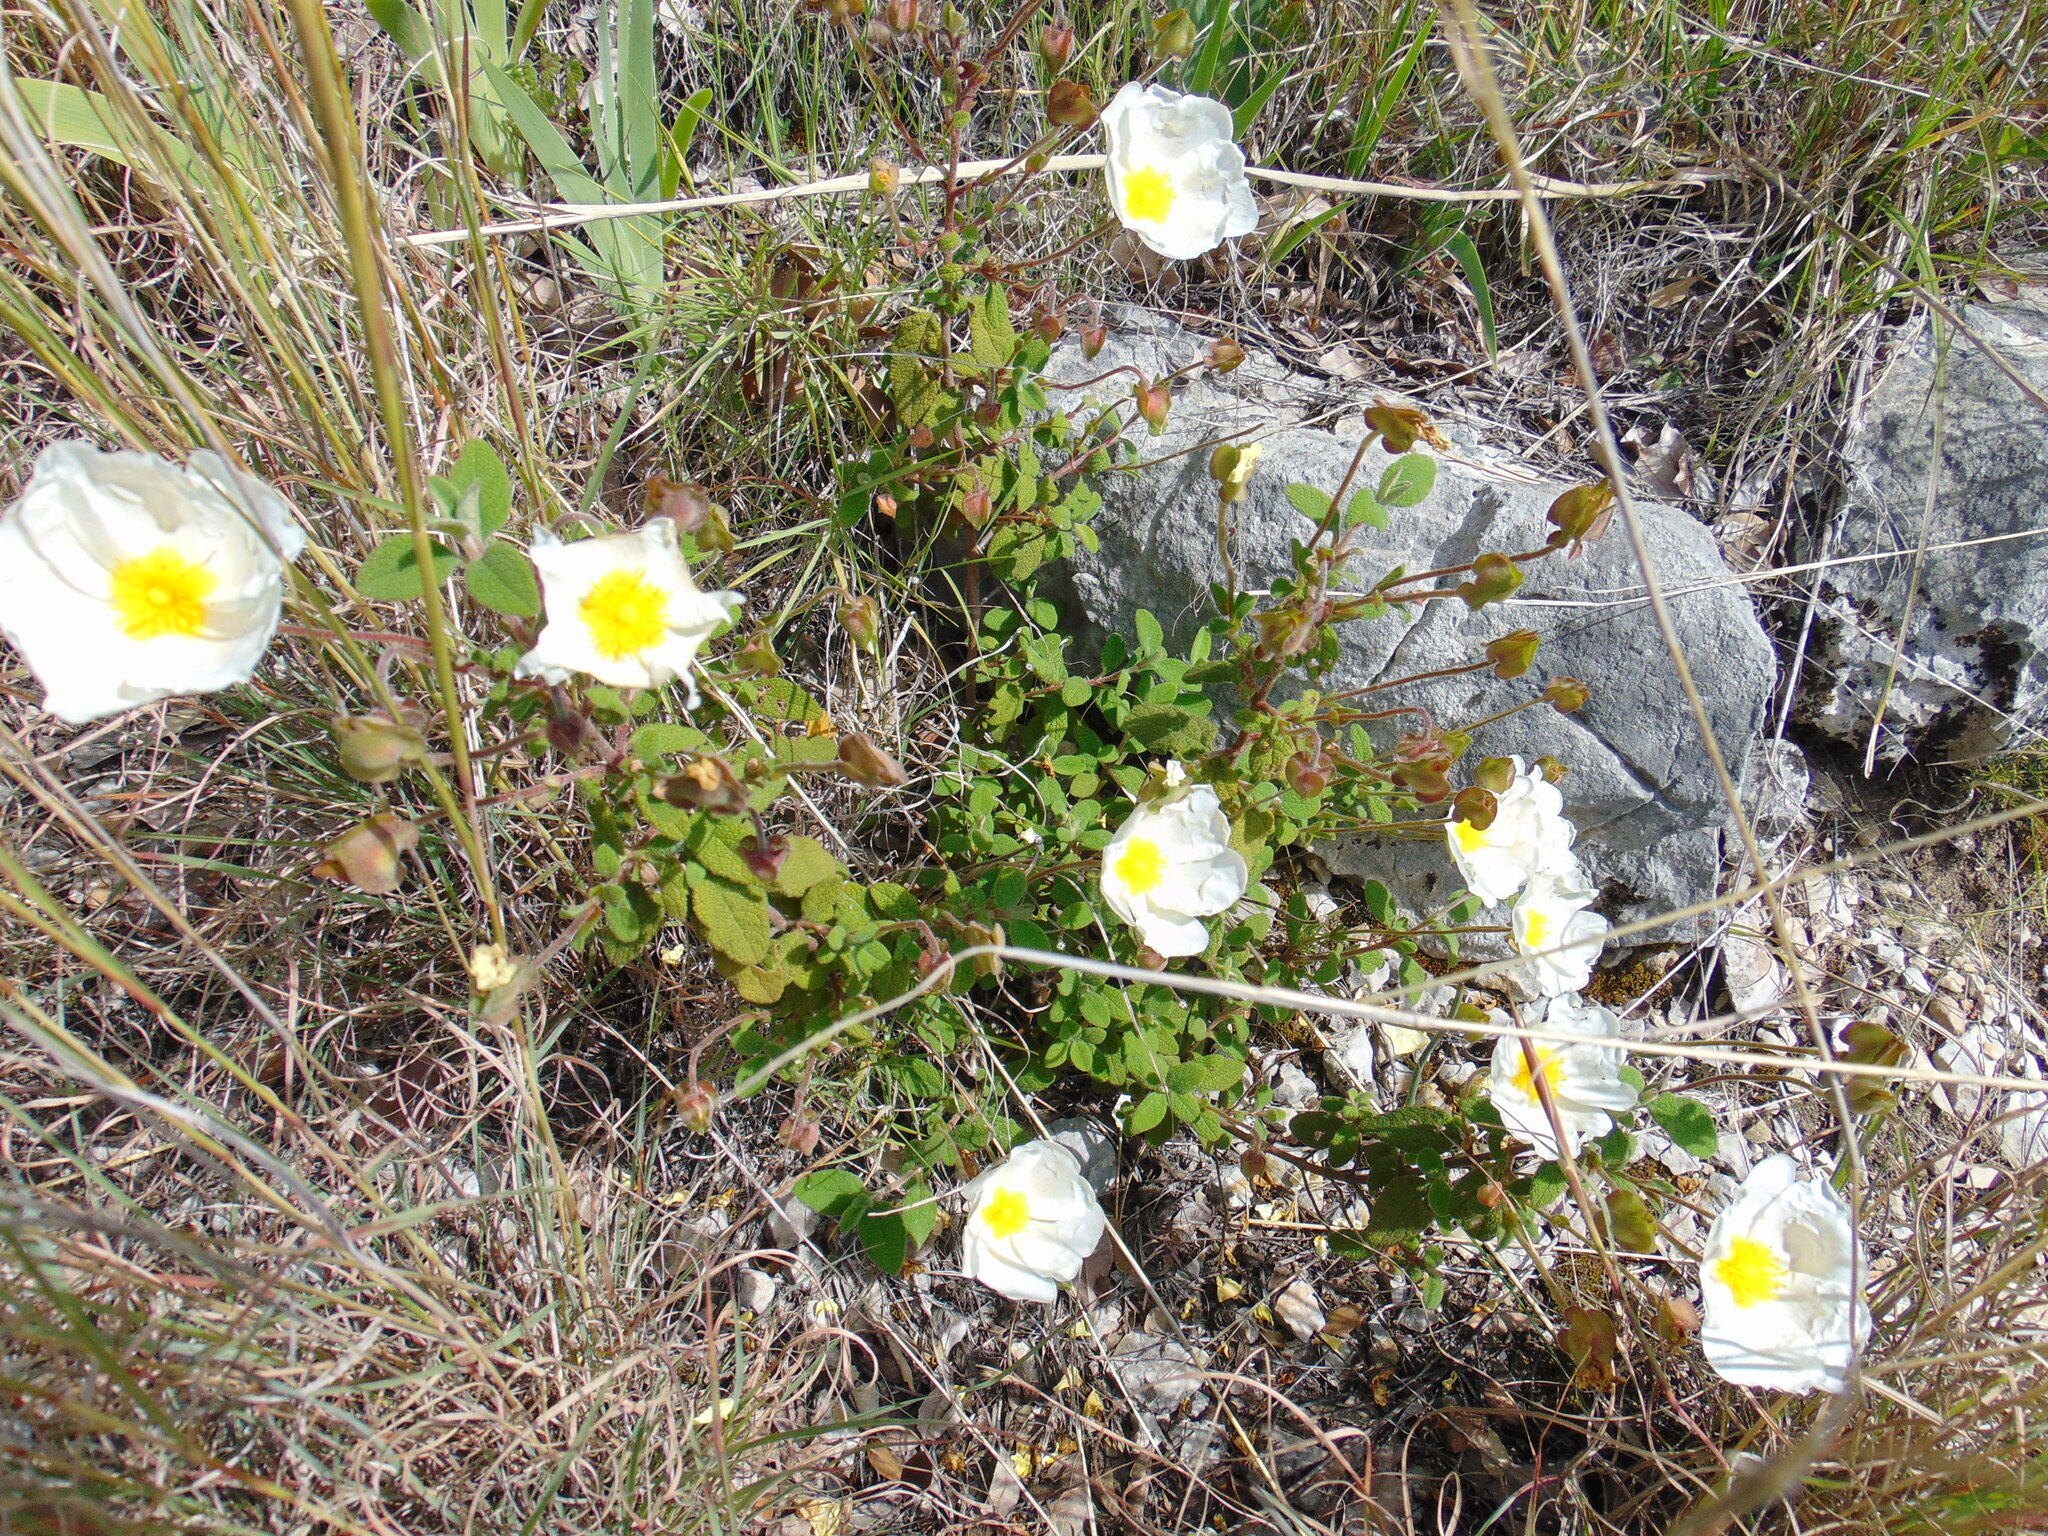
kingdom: Plantae
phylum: Tracheophyta
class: Magnoliopsida
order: Malvales
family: Cistaceae
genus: Cistus
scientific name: Cistus salviifolius
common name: Salvia cistus
